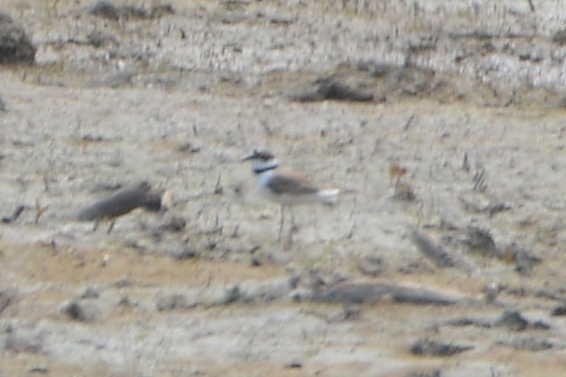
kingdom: Animalia
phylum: Chordata
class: Aves
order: Charadriiformes
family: Charadriidae
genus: Charadrius
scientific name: Charadrius dubius
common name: Little ringed plover
